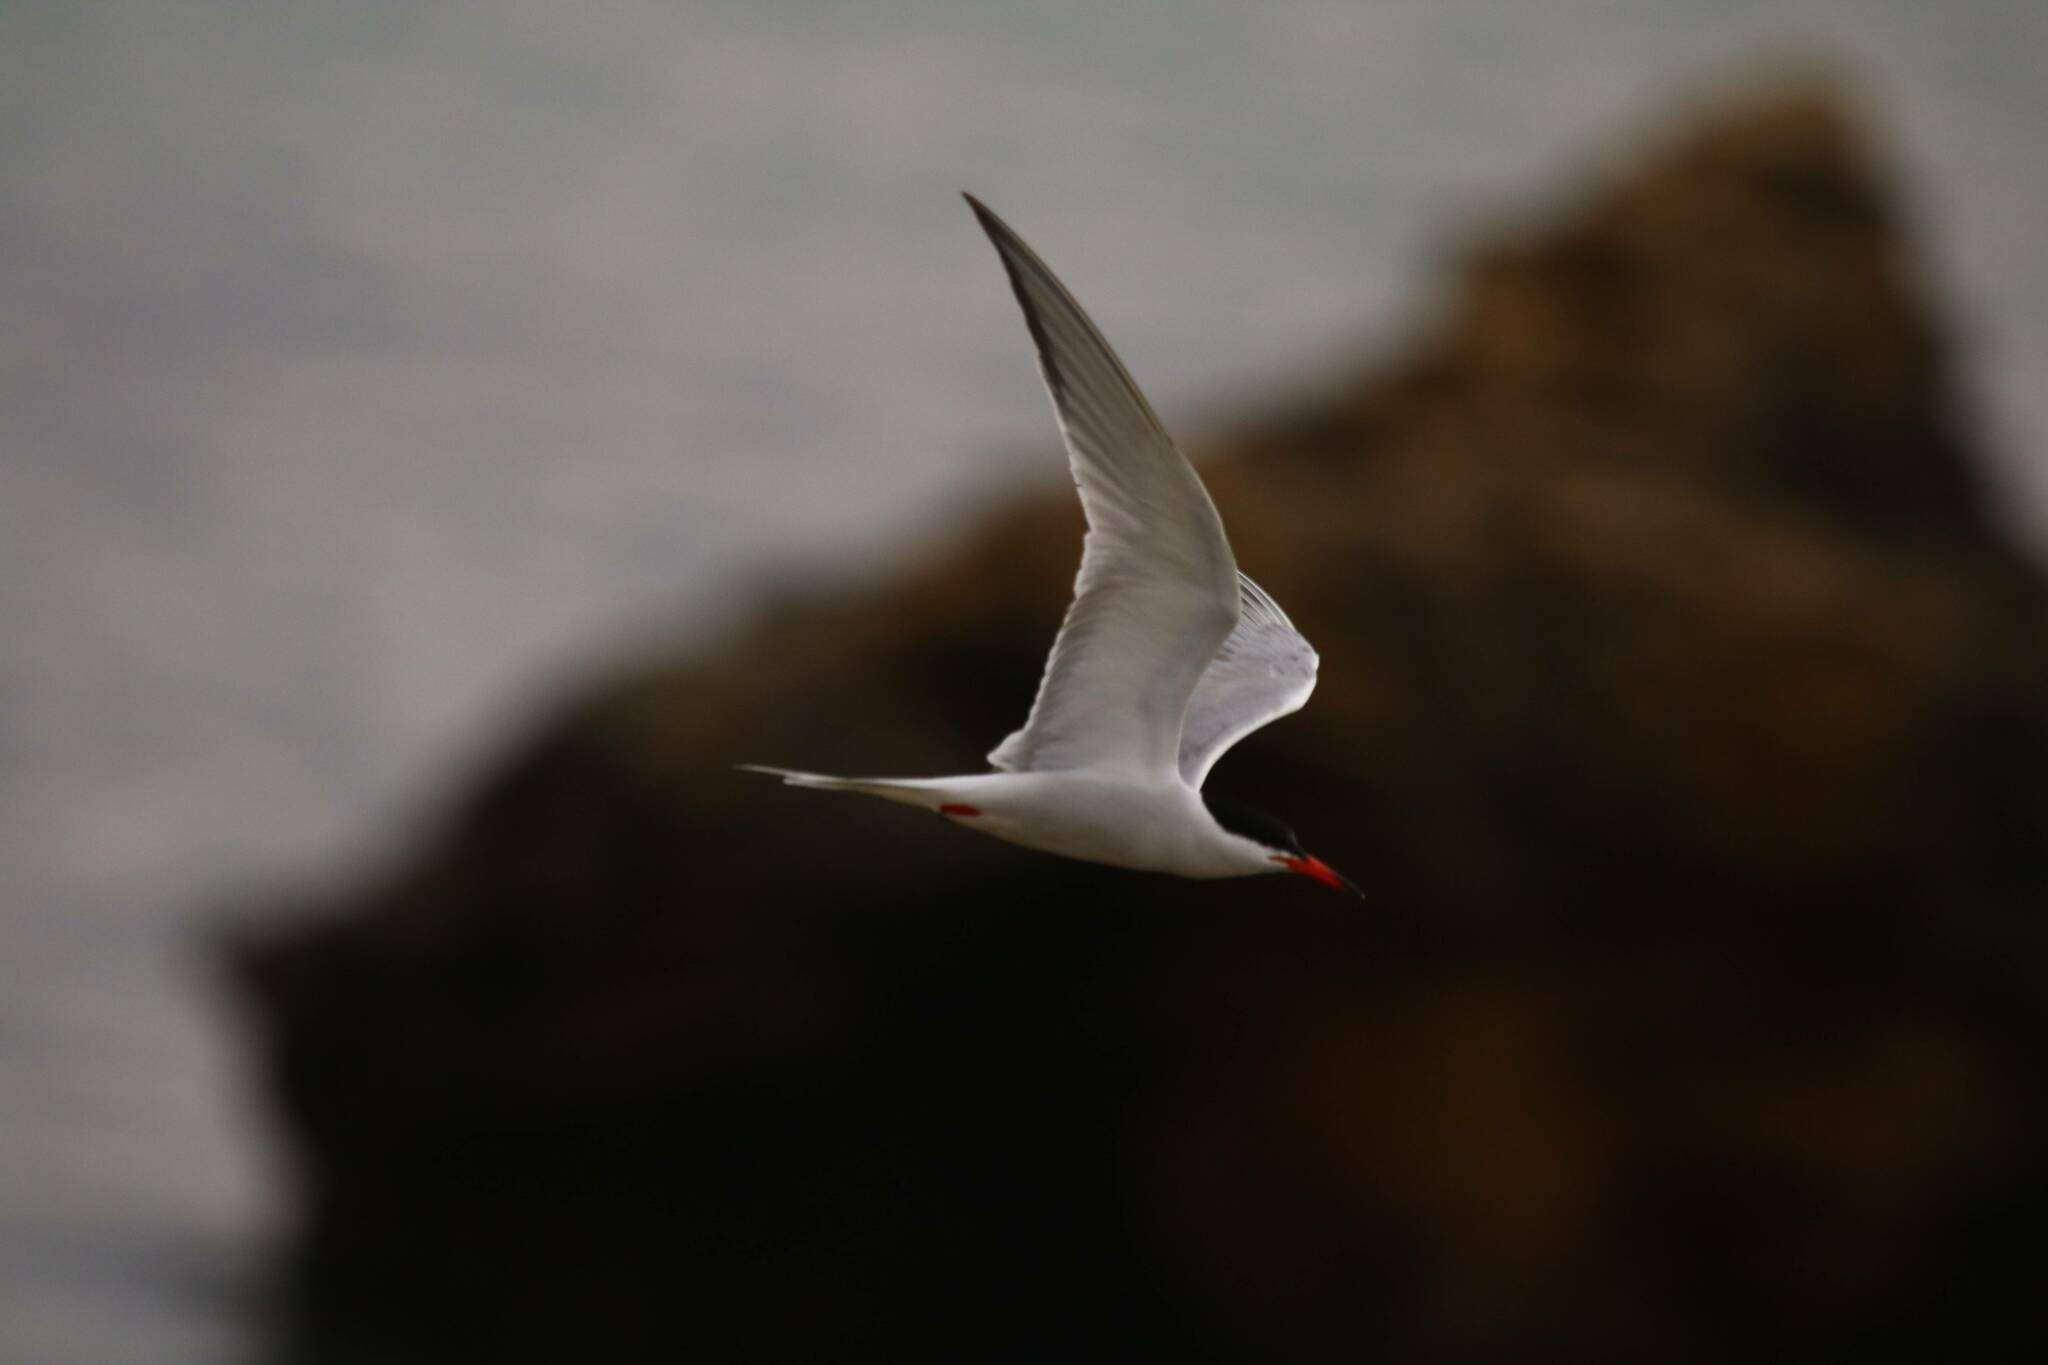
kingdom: Animalia
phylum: Chordata
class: Aves
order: Charadriiformes
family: Laridae
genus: Sterna
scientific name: Sterna hirundo
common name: Common tern
